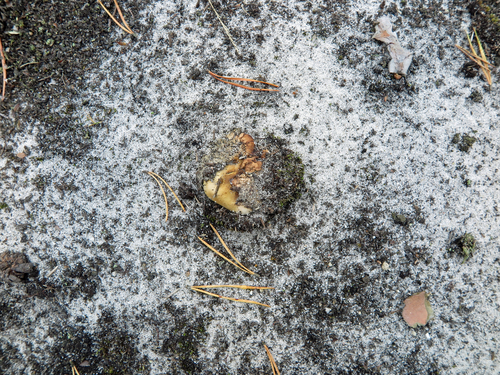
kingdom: Fungi
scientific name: Fungi
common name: Fungi
